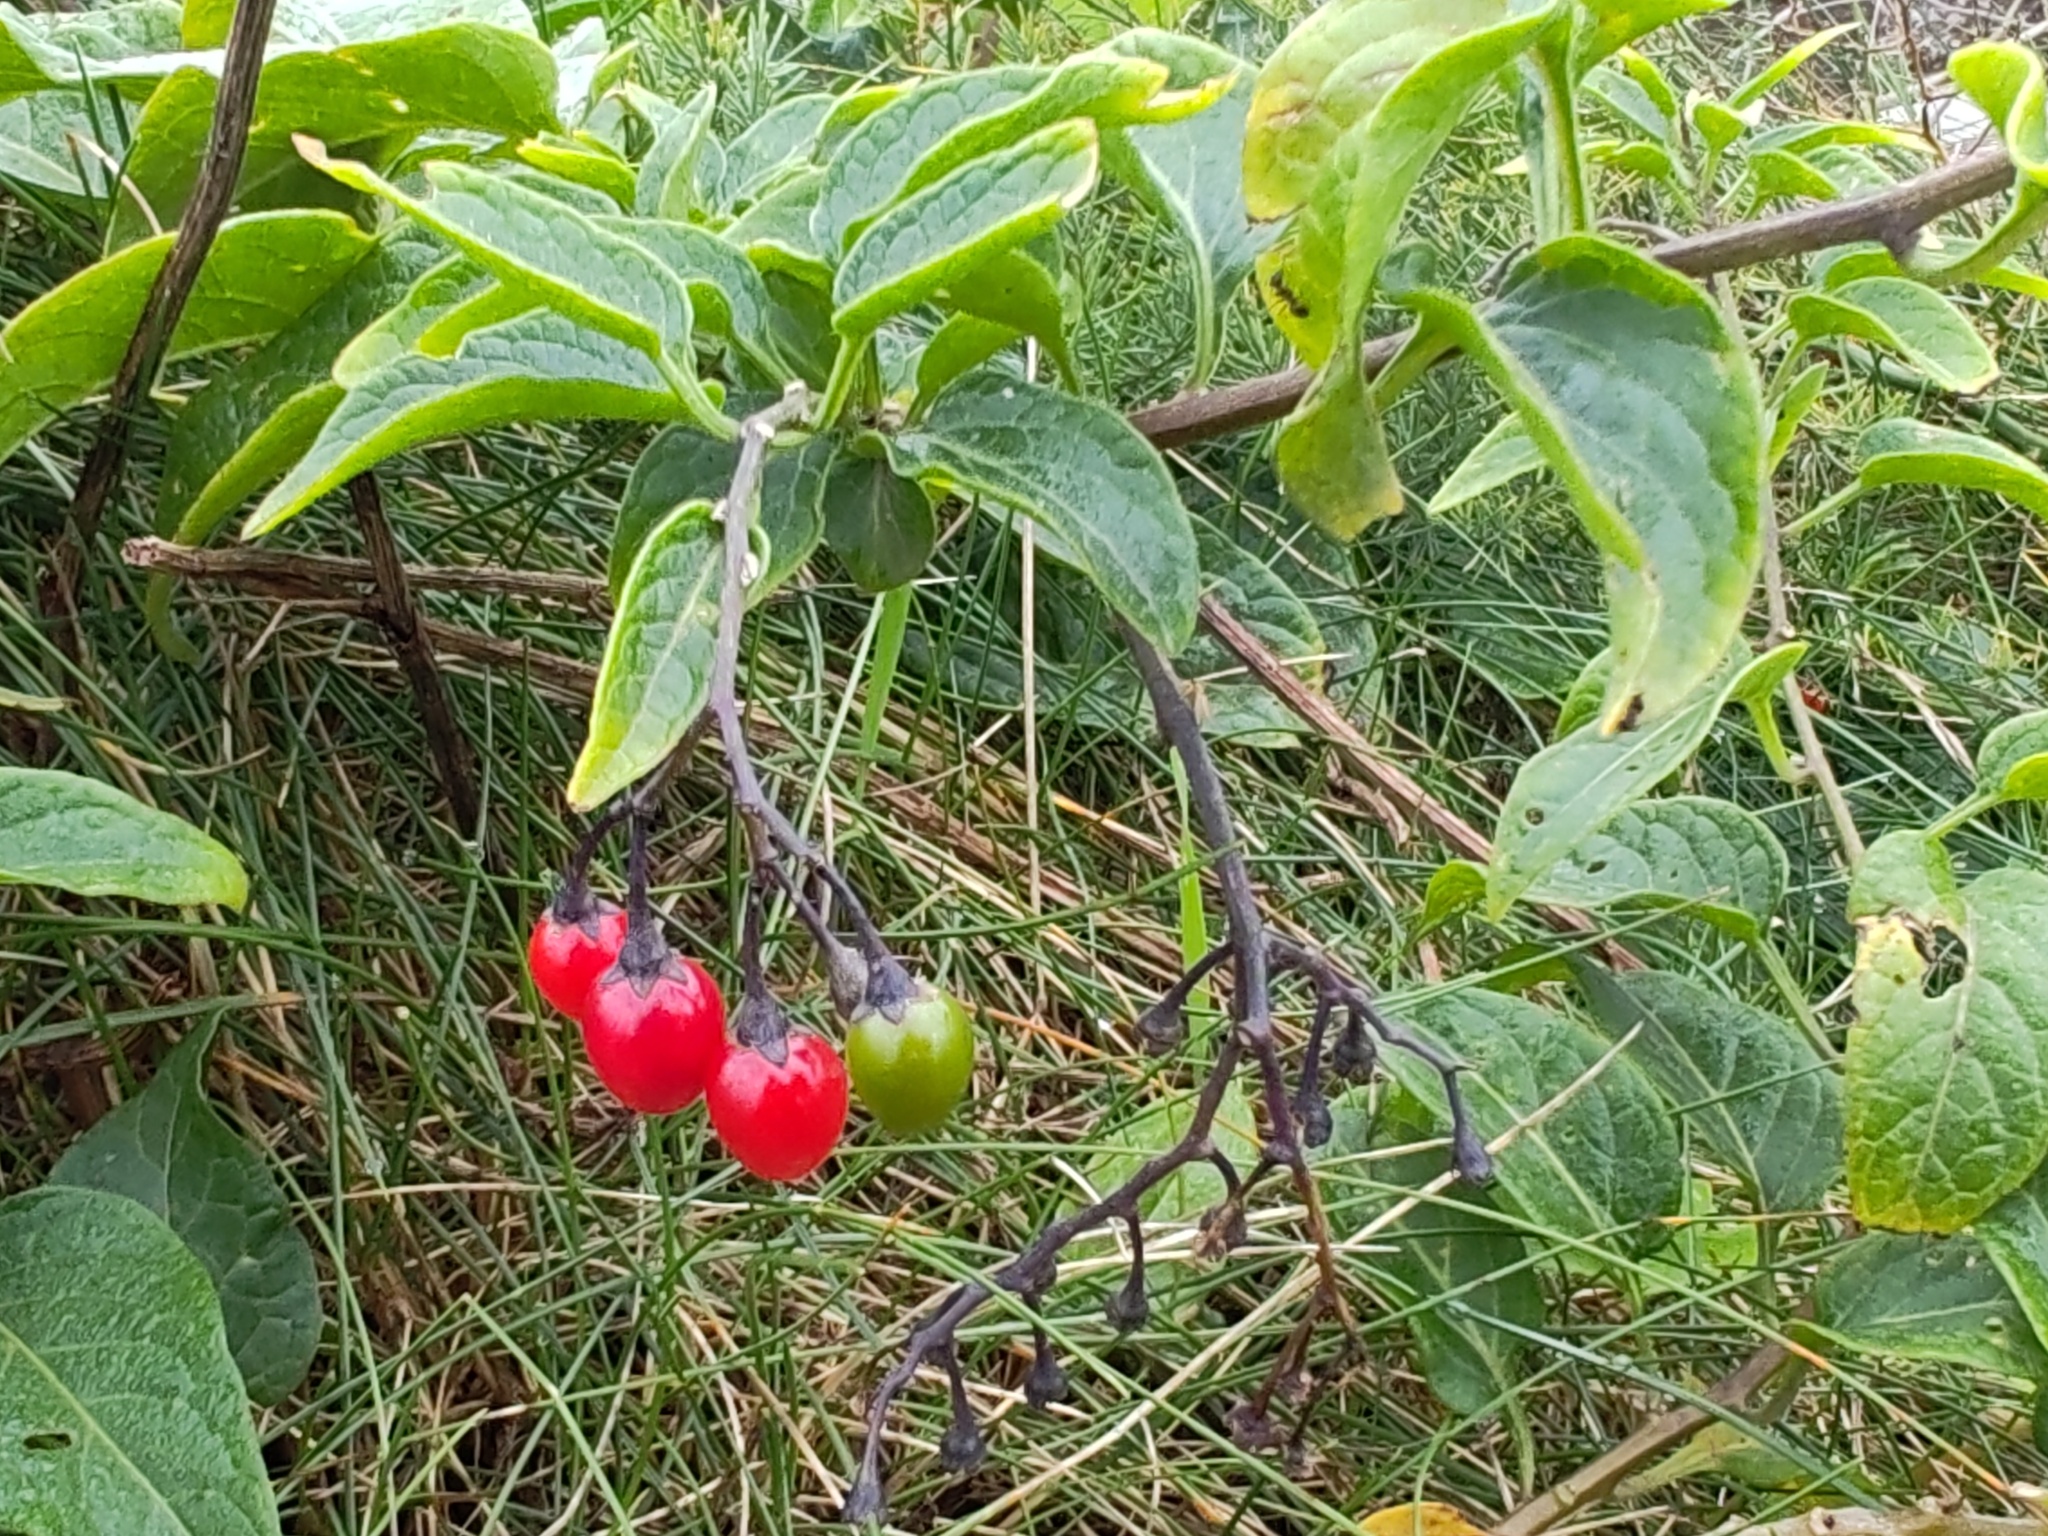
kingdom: Plantae
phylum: Tracheophyta
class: Magnoliopsida
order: Solanales
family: Solanaceae
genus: Solanum
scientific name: Solanum dulcamara
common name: Climbing nightshade
